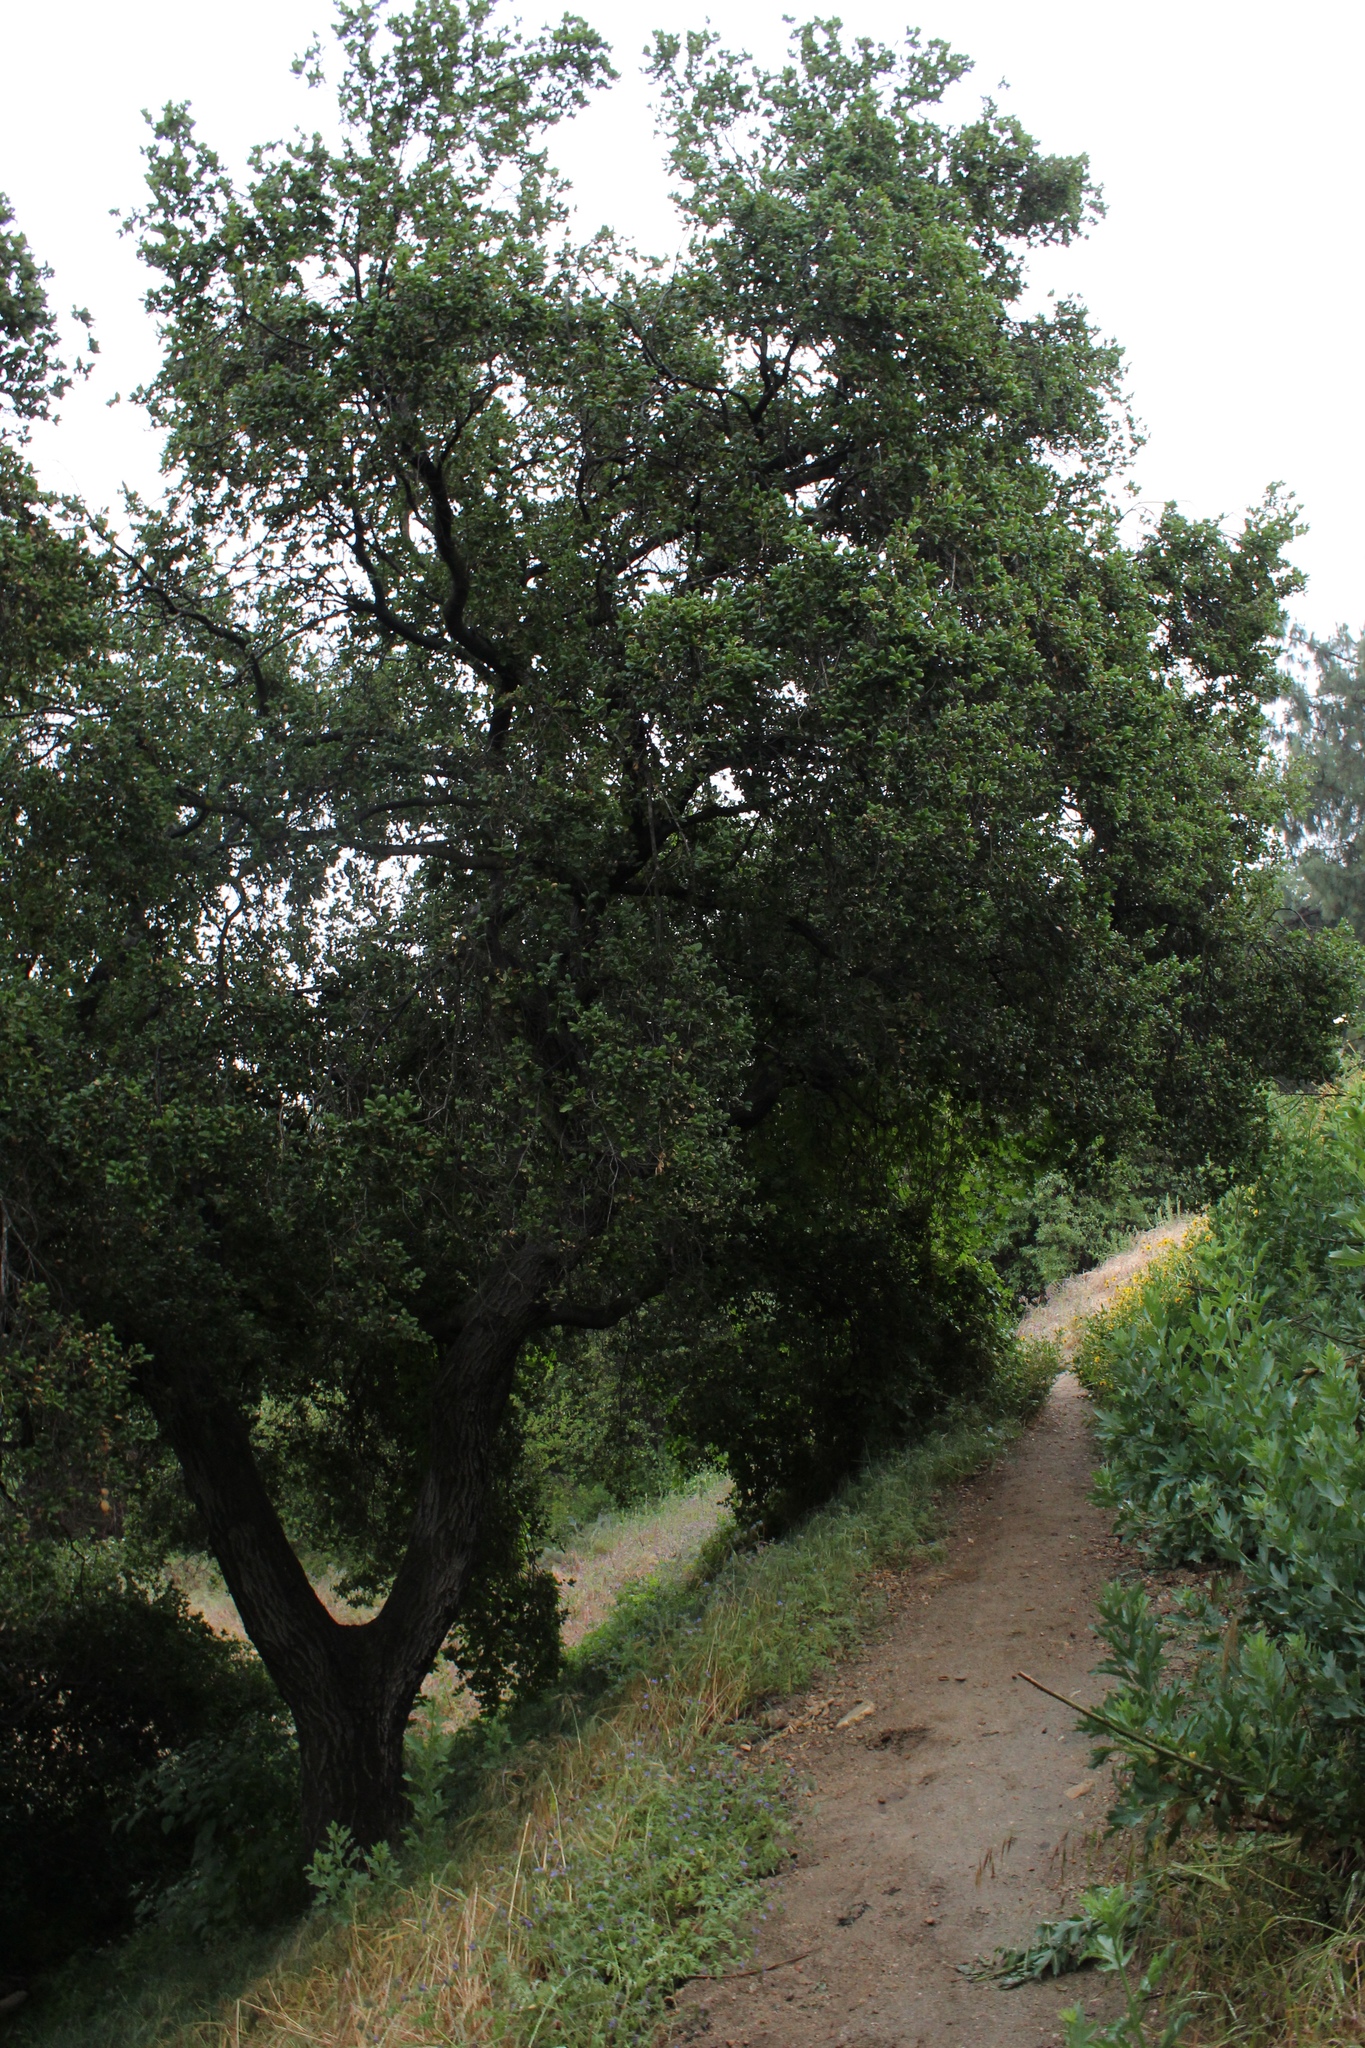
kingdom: Plantae
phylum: Tracheophyta
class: Magnoliopsida
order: Fagales
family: Fagaceae
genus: Quercus
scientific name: Quercus agrifolia
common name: California live oak
